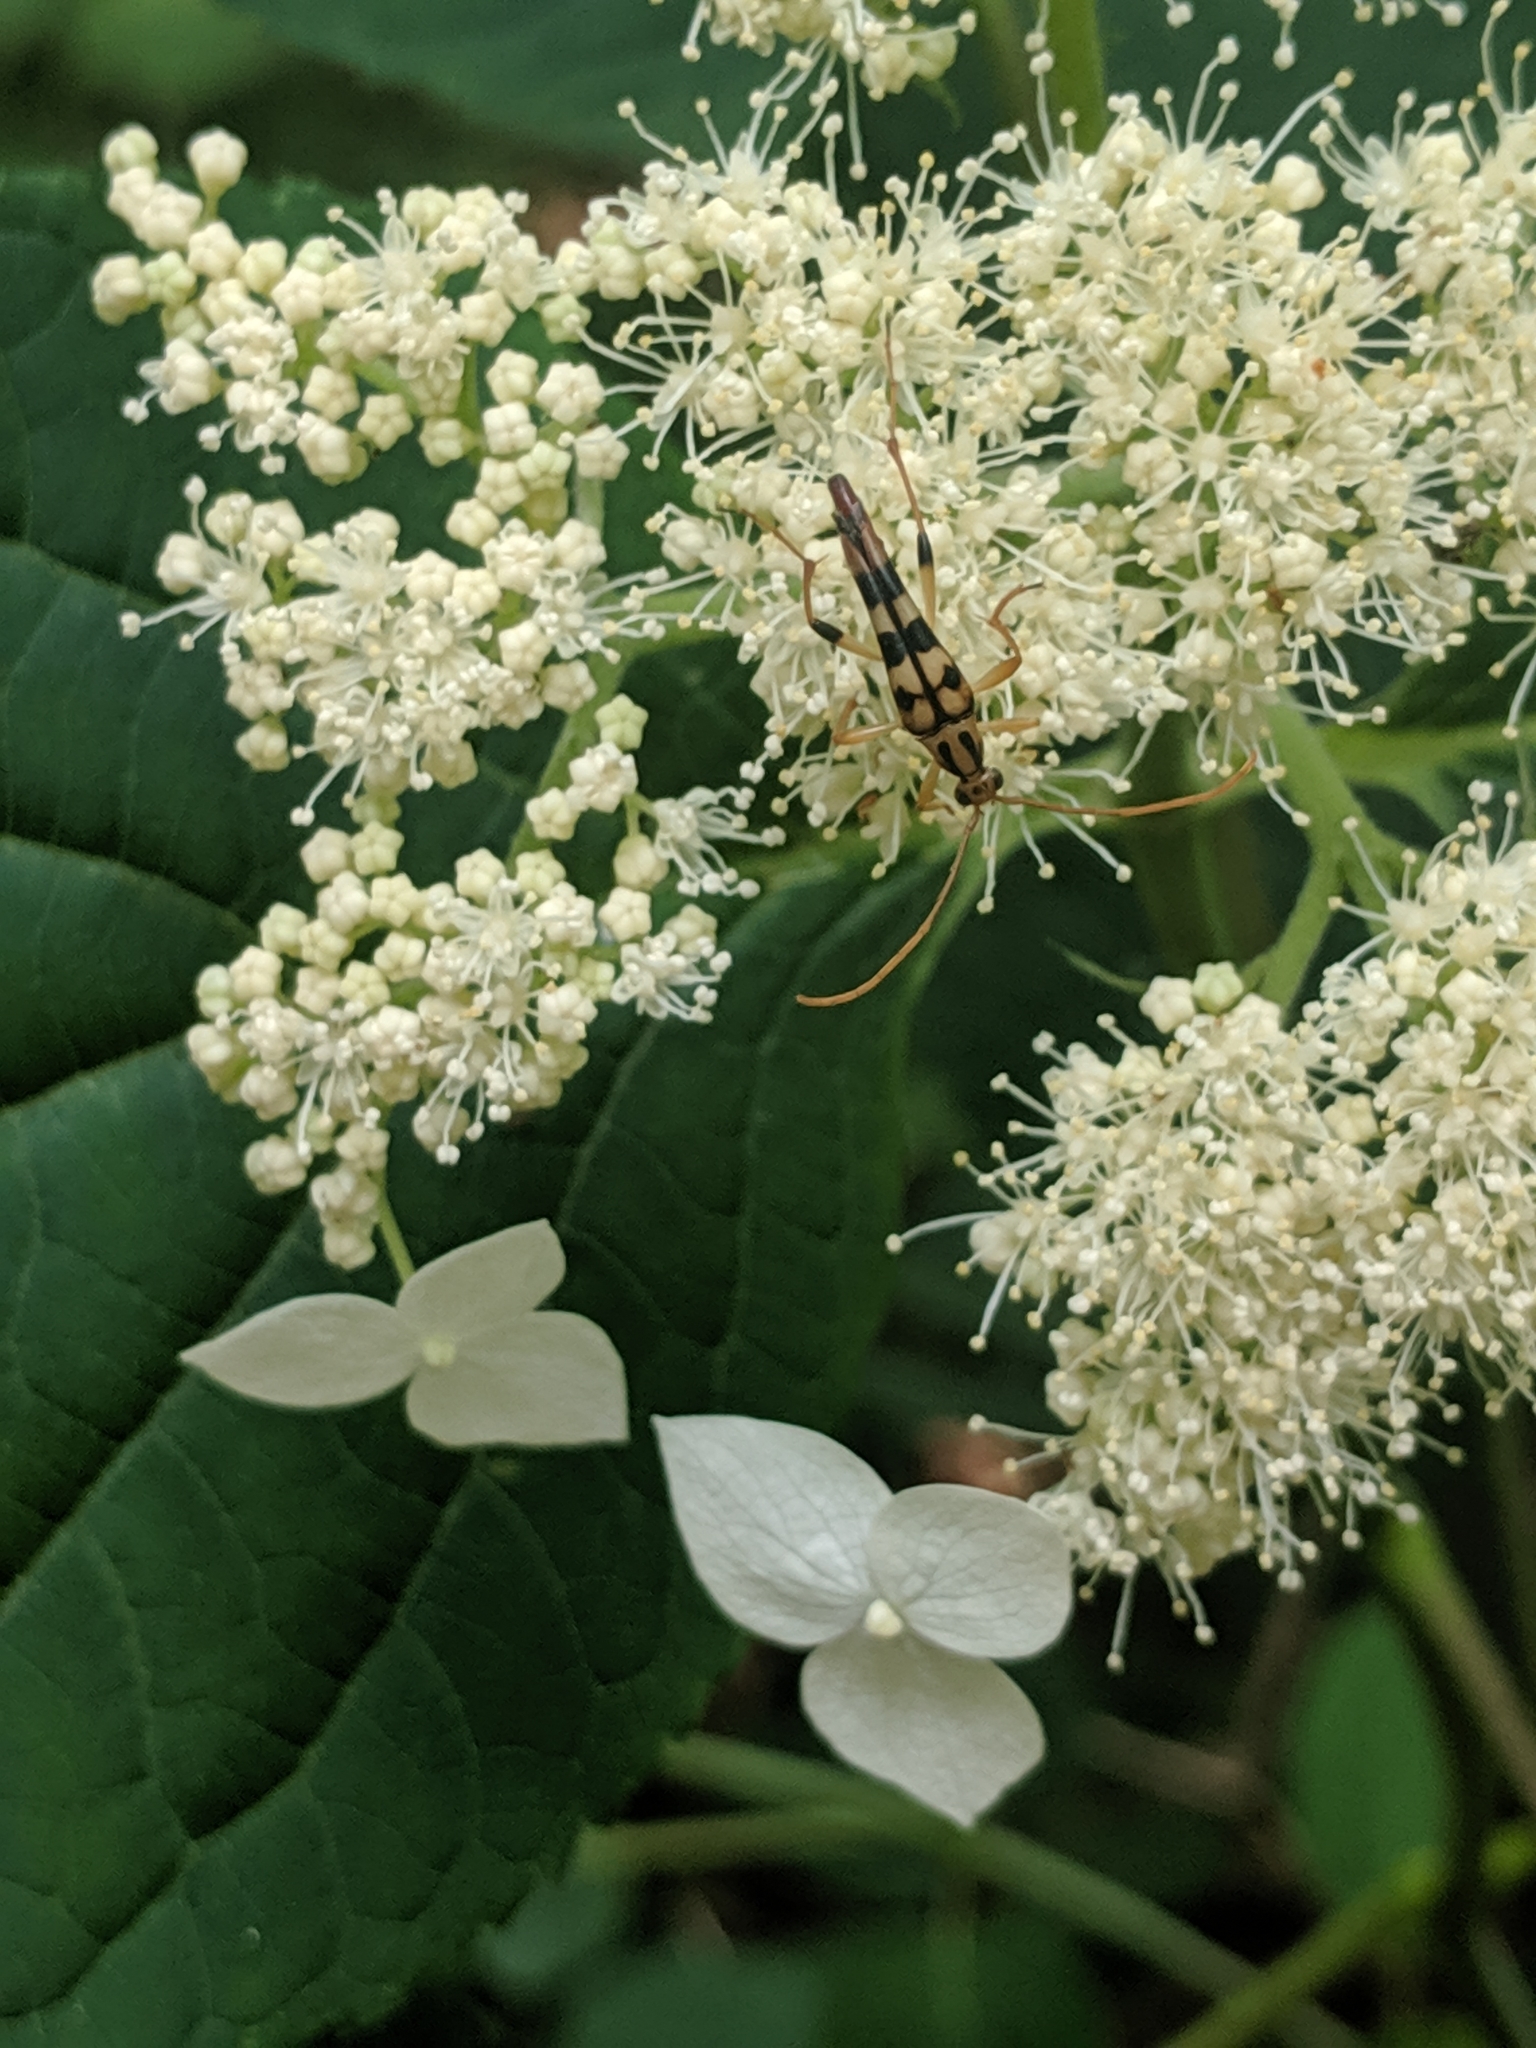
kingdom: Animalia
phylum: Arthropoda
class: Insecta
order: Coleoptera
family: Cerambycidae
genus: Strangalia
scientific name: Strangalia luteicornis
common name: Yellow-horned flower longhorn beetle
